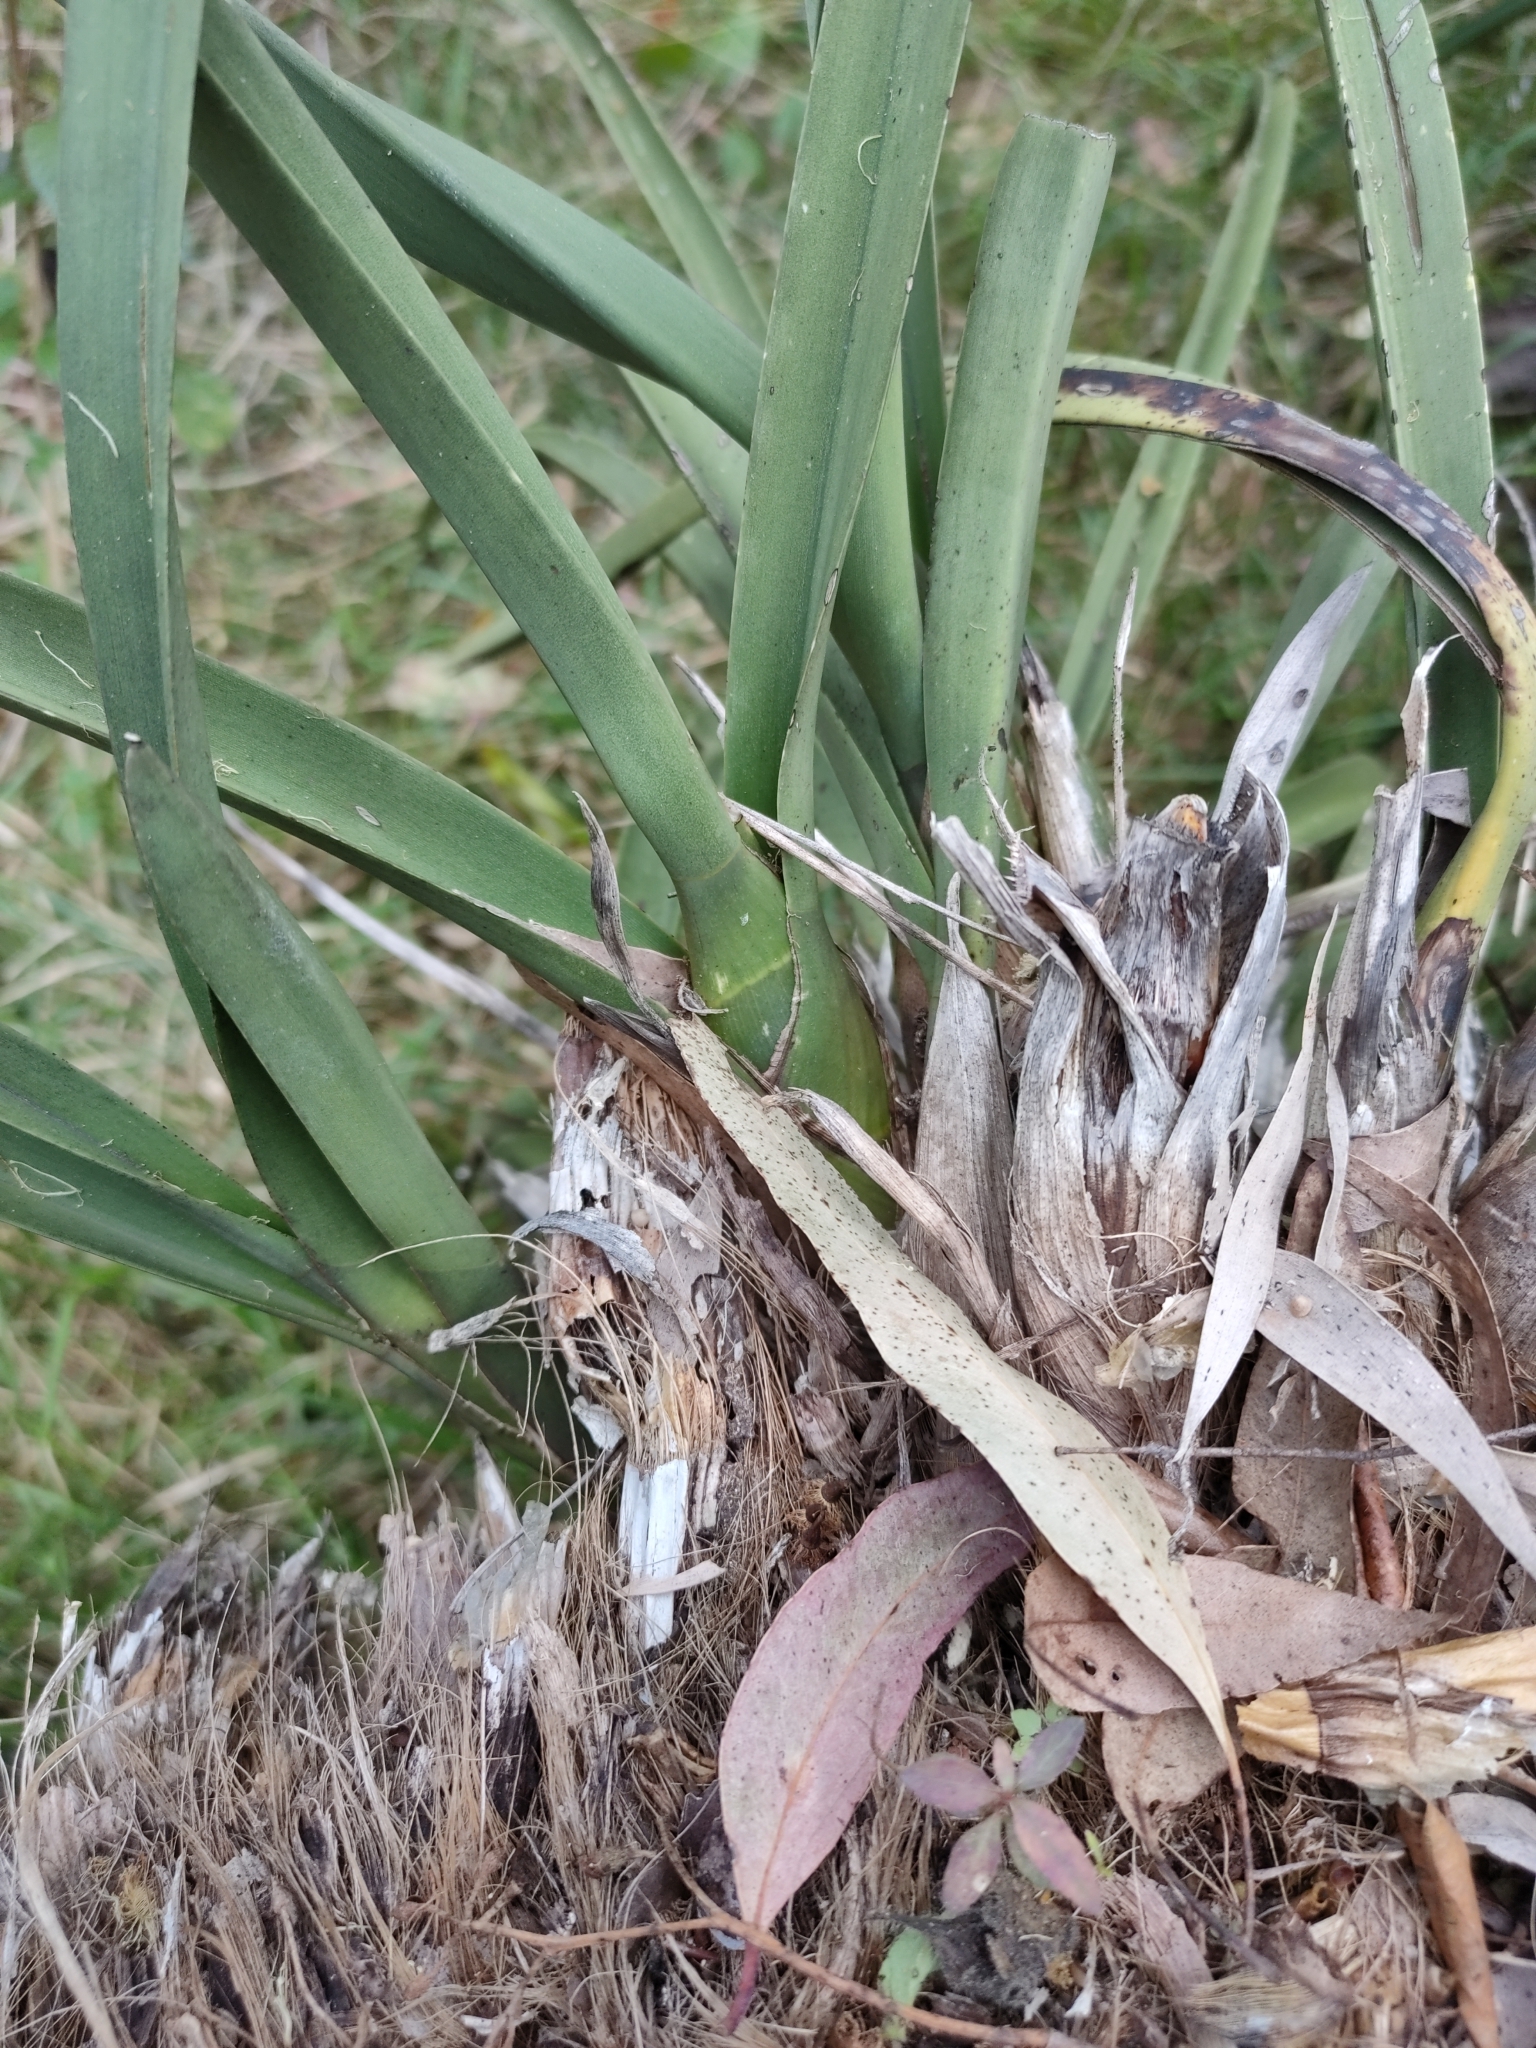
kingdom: Plantae
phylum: Tracheophyta
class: Liliopsida
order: Asparagales
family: Orchidaceae
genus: Cymbidium
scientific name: Cymbidium canaliculatum
